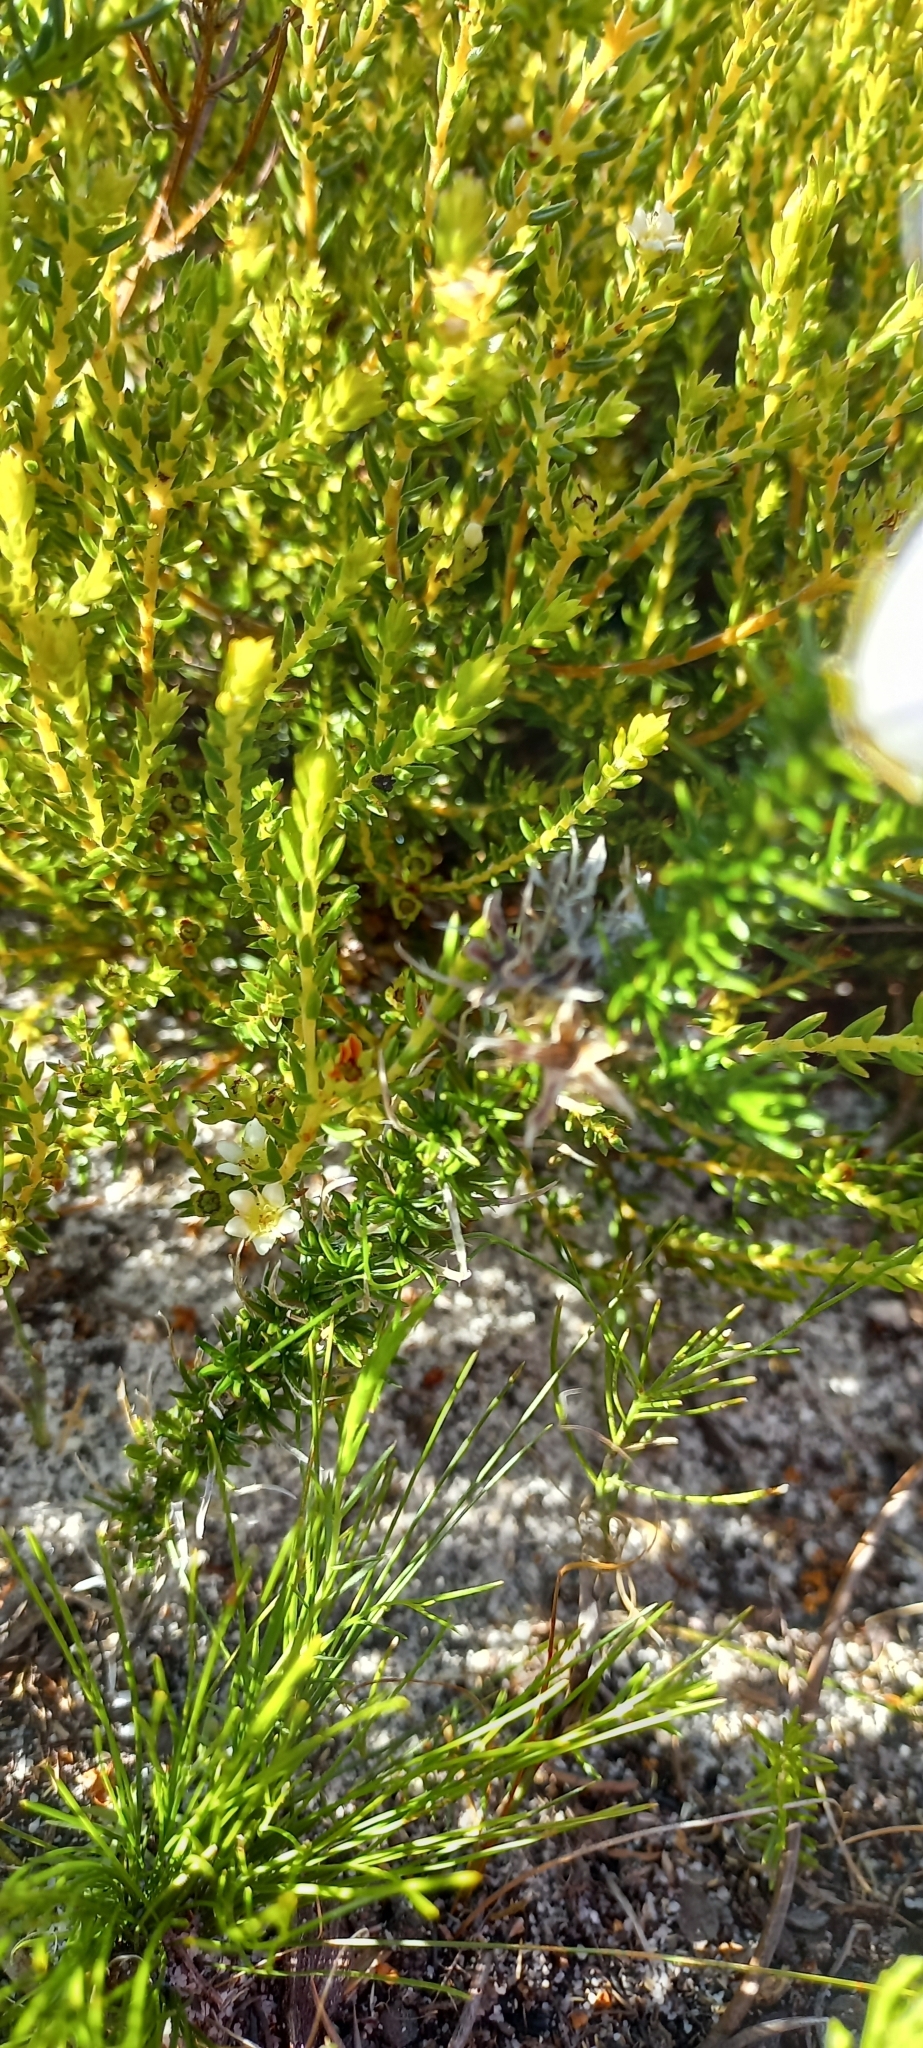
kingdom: Plantae
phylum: Tracheophyta
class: Magnoliopsida
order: Sapindales
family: Rutaceae
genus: Diosma
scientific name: Diosma oppositifolia
